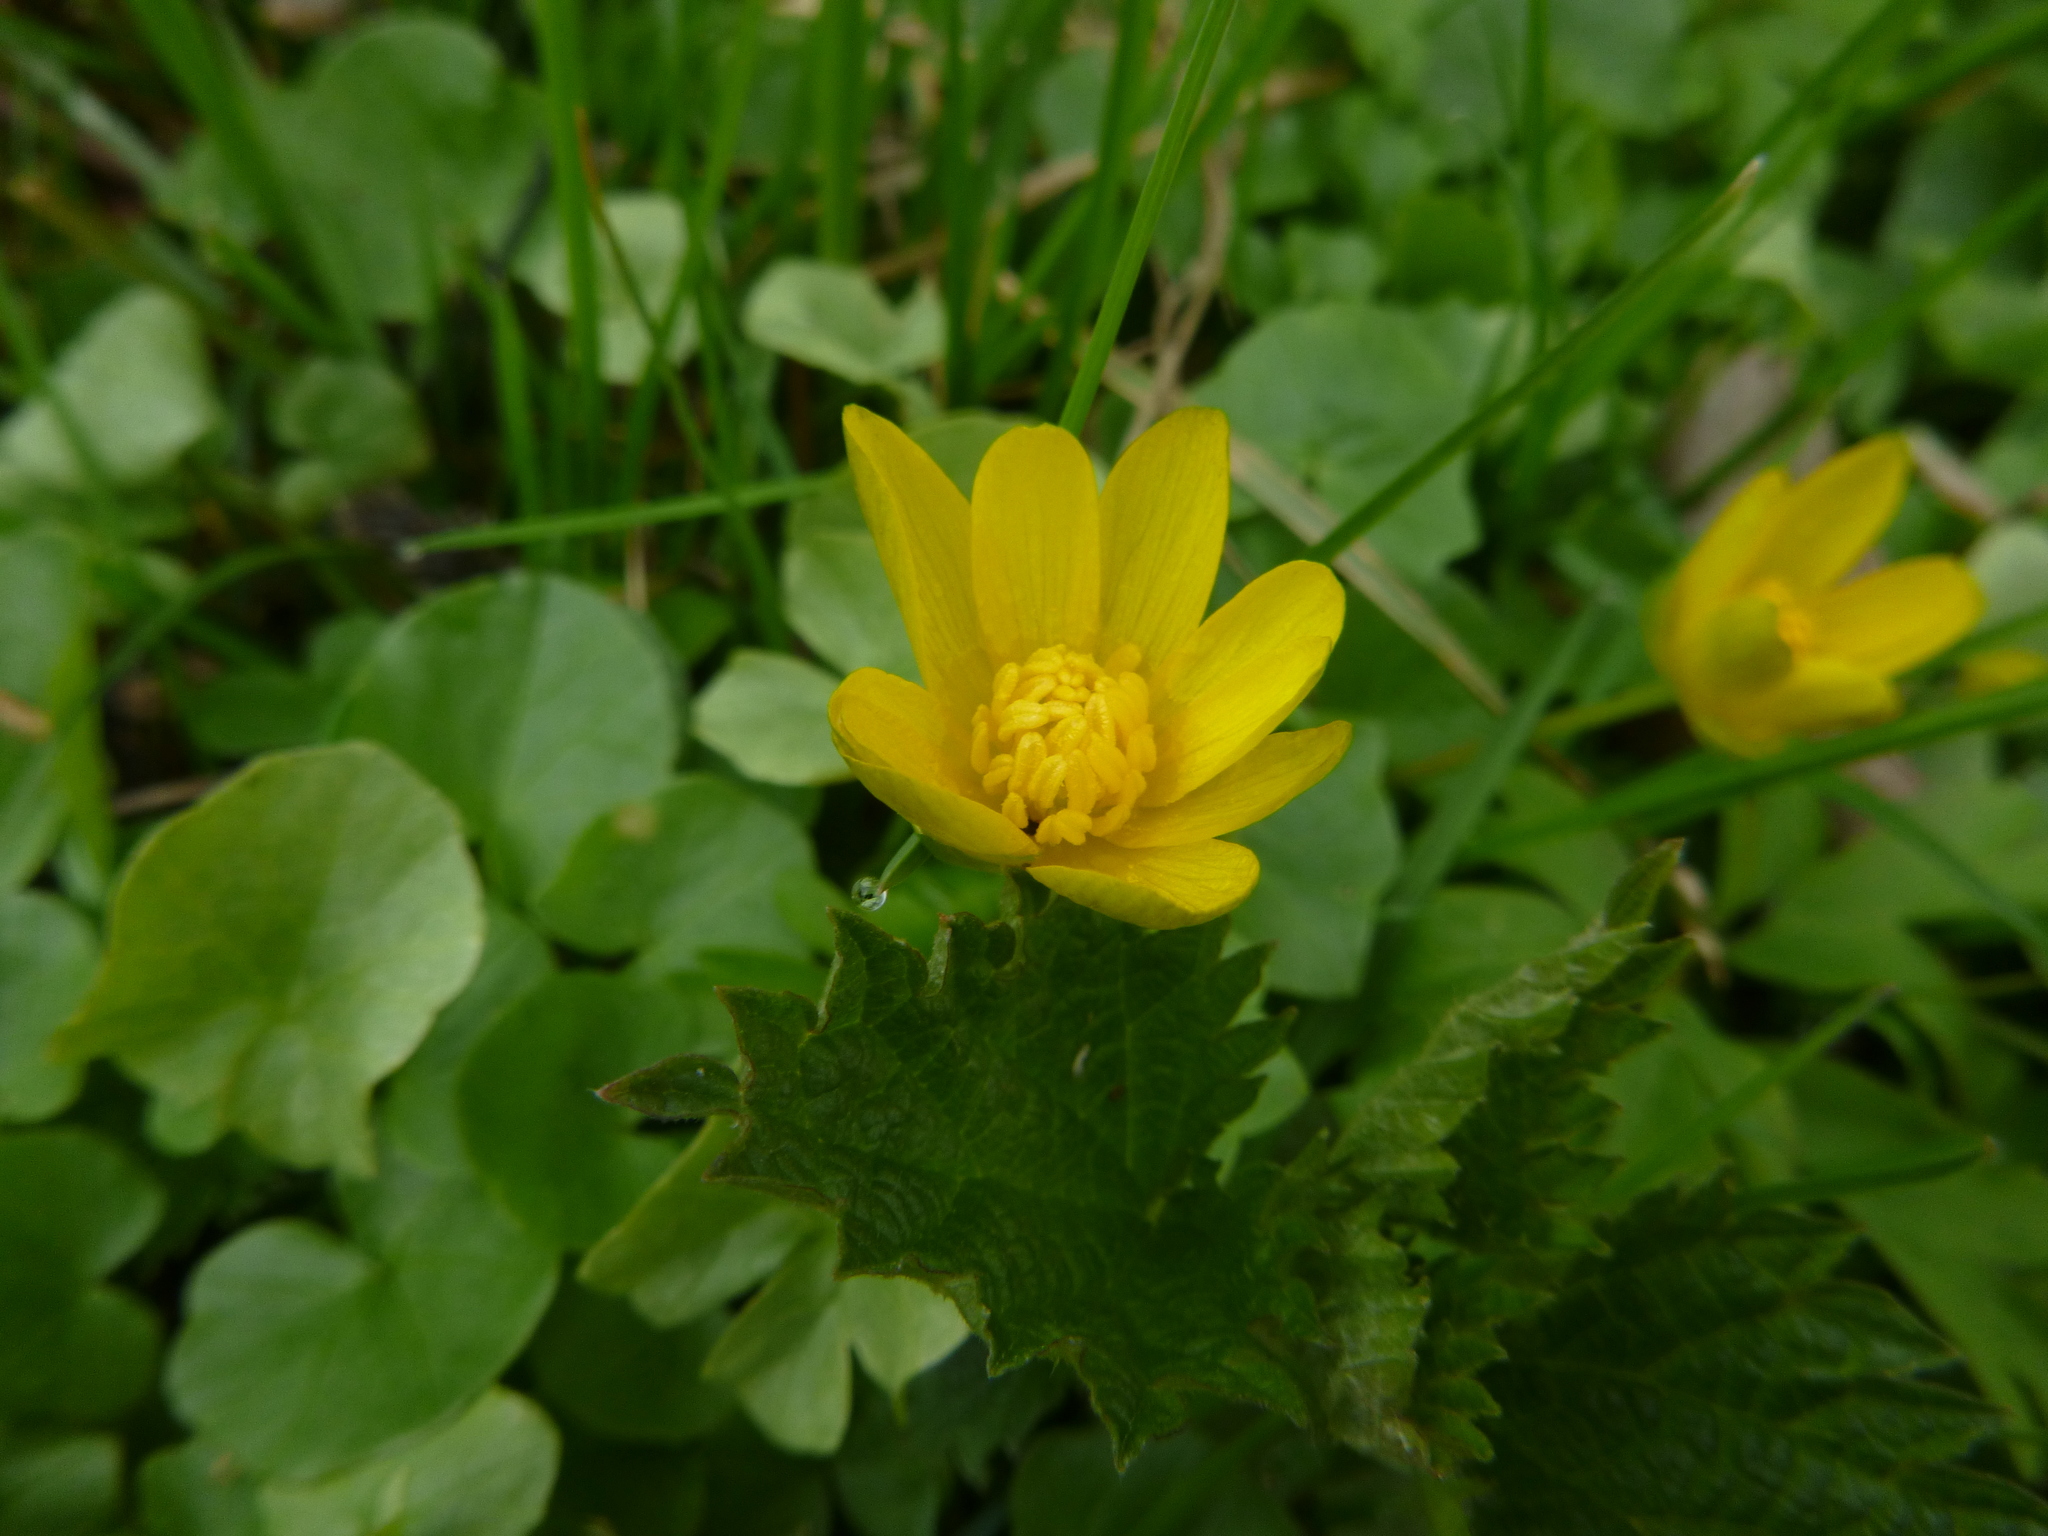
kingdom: Plantae
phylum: Tracheophyta
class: Magnoliopsida
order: Ranunculales
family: Ranunculaceae
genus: Ficaria
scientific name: Ficaria verna
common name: Lesser celandine
